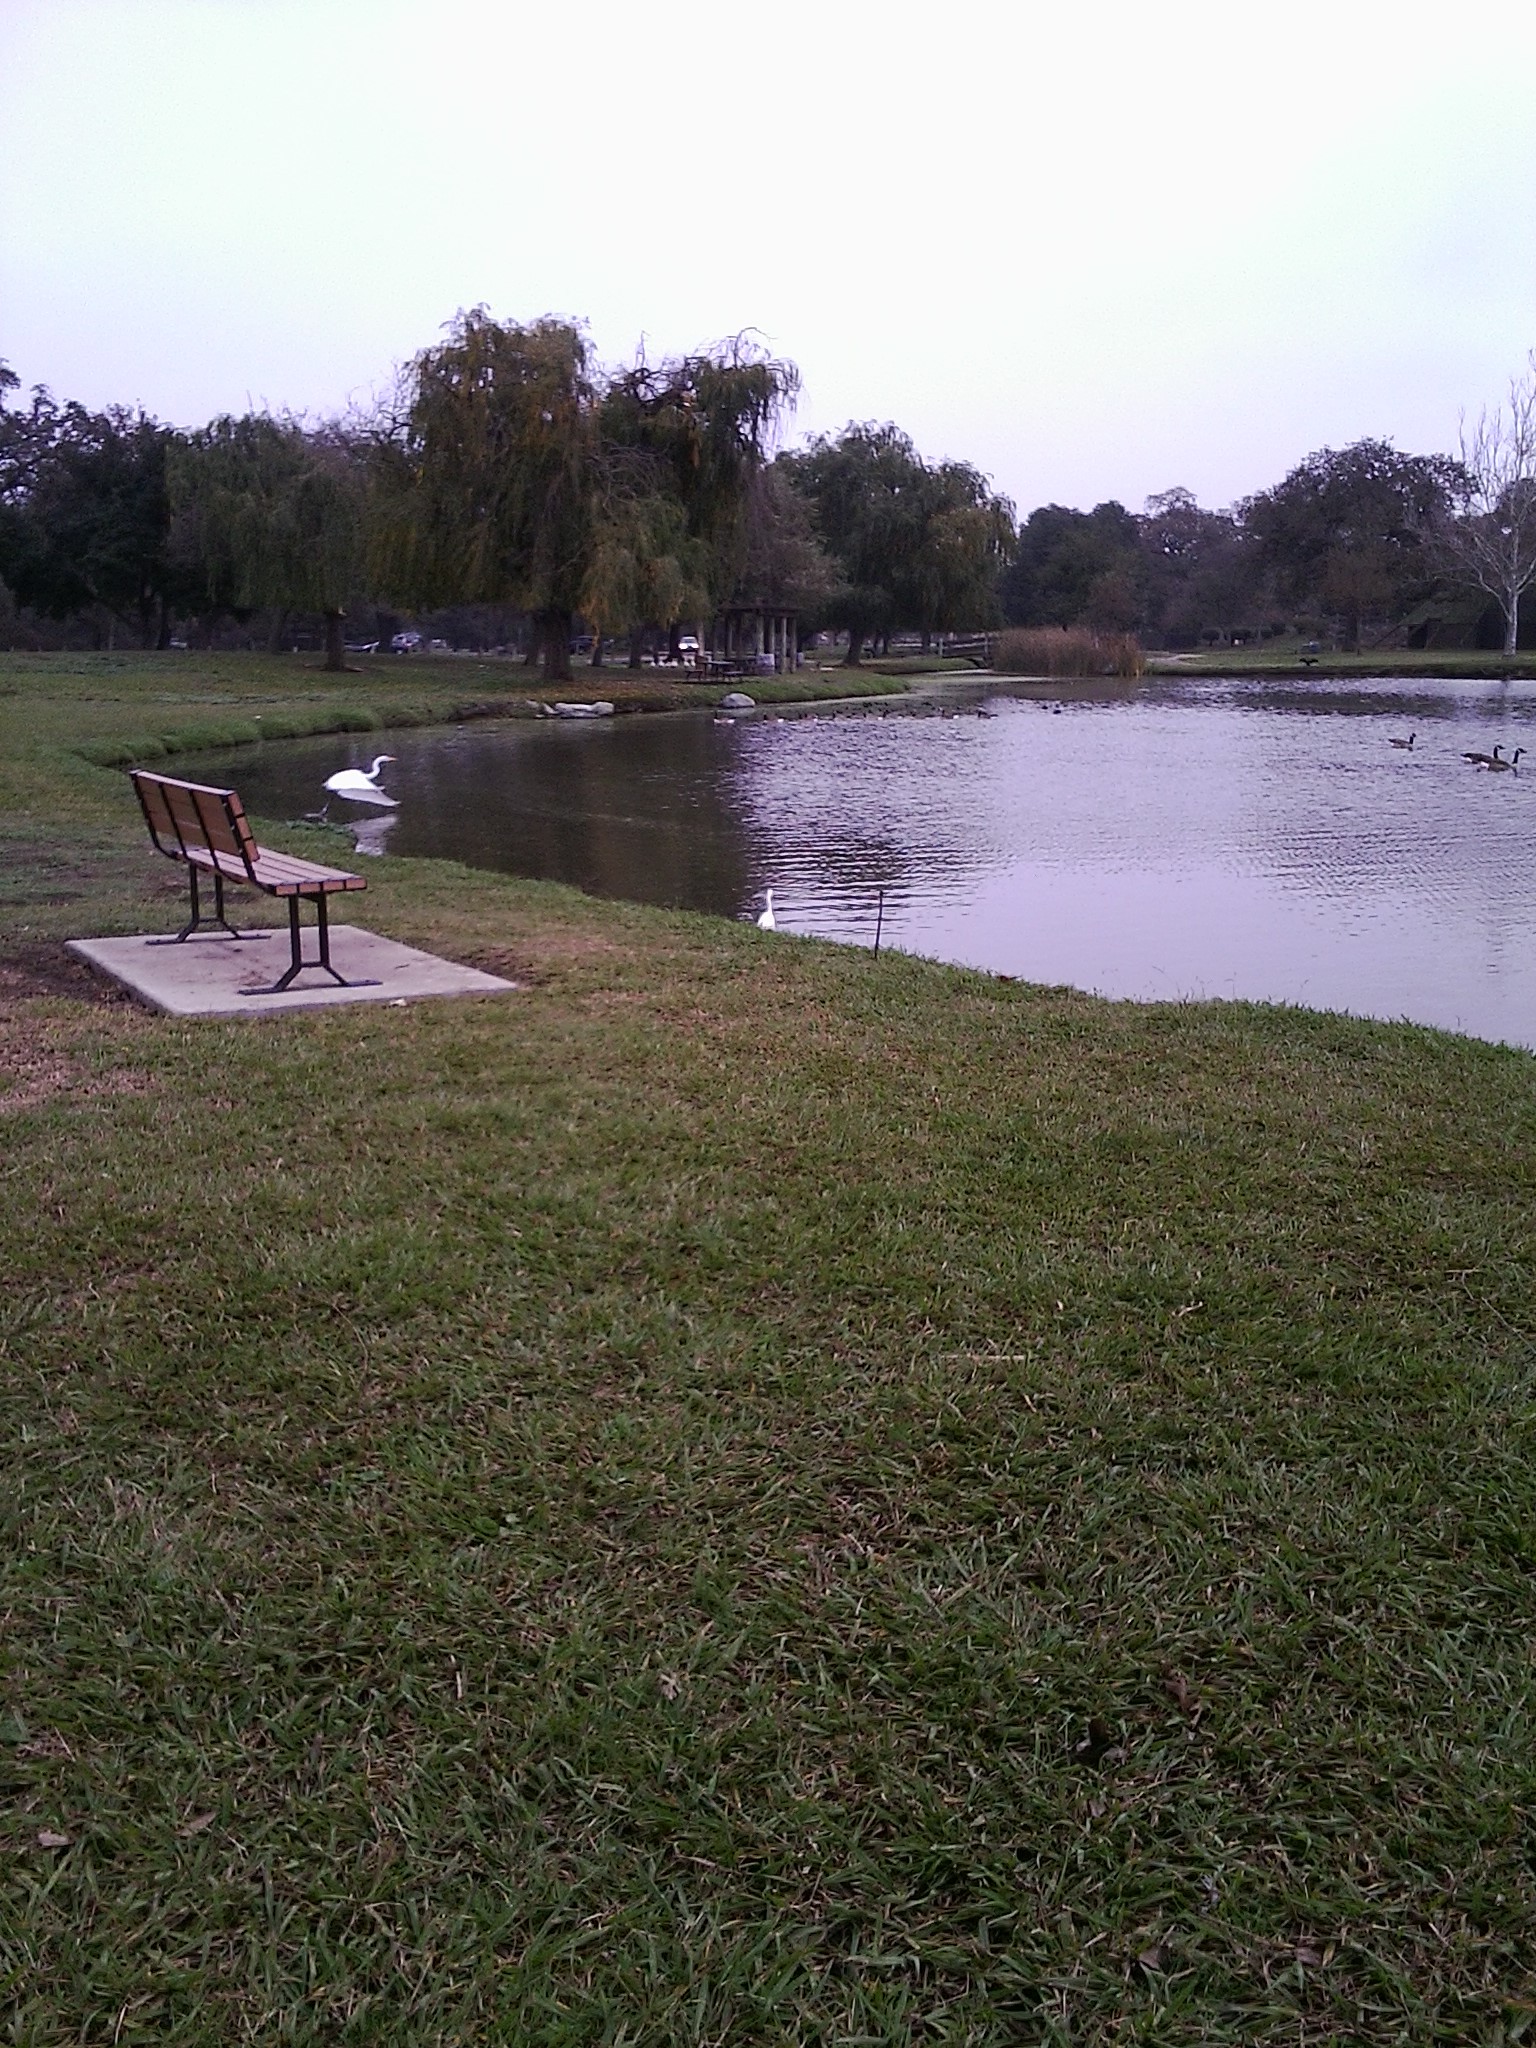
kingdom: Animalia
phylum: Chordata
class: Aves
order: Pelecaniformes
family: Ardeidae
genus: Egretta
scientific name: Egretta thula
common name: Snowy egret
